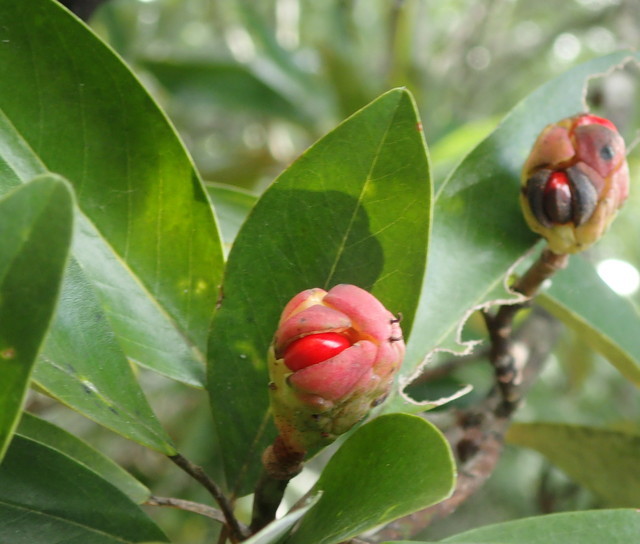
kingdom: Plantae
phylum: Tracheophyta
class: Magnoliopsida
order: Magnoliales
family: Magnoliaceae
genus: Magnolia
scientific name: Magnolia virginiana
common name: Swamp bay
